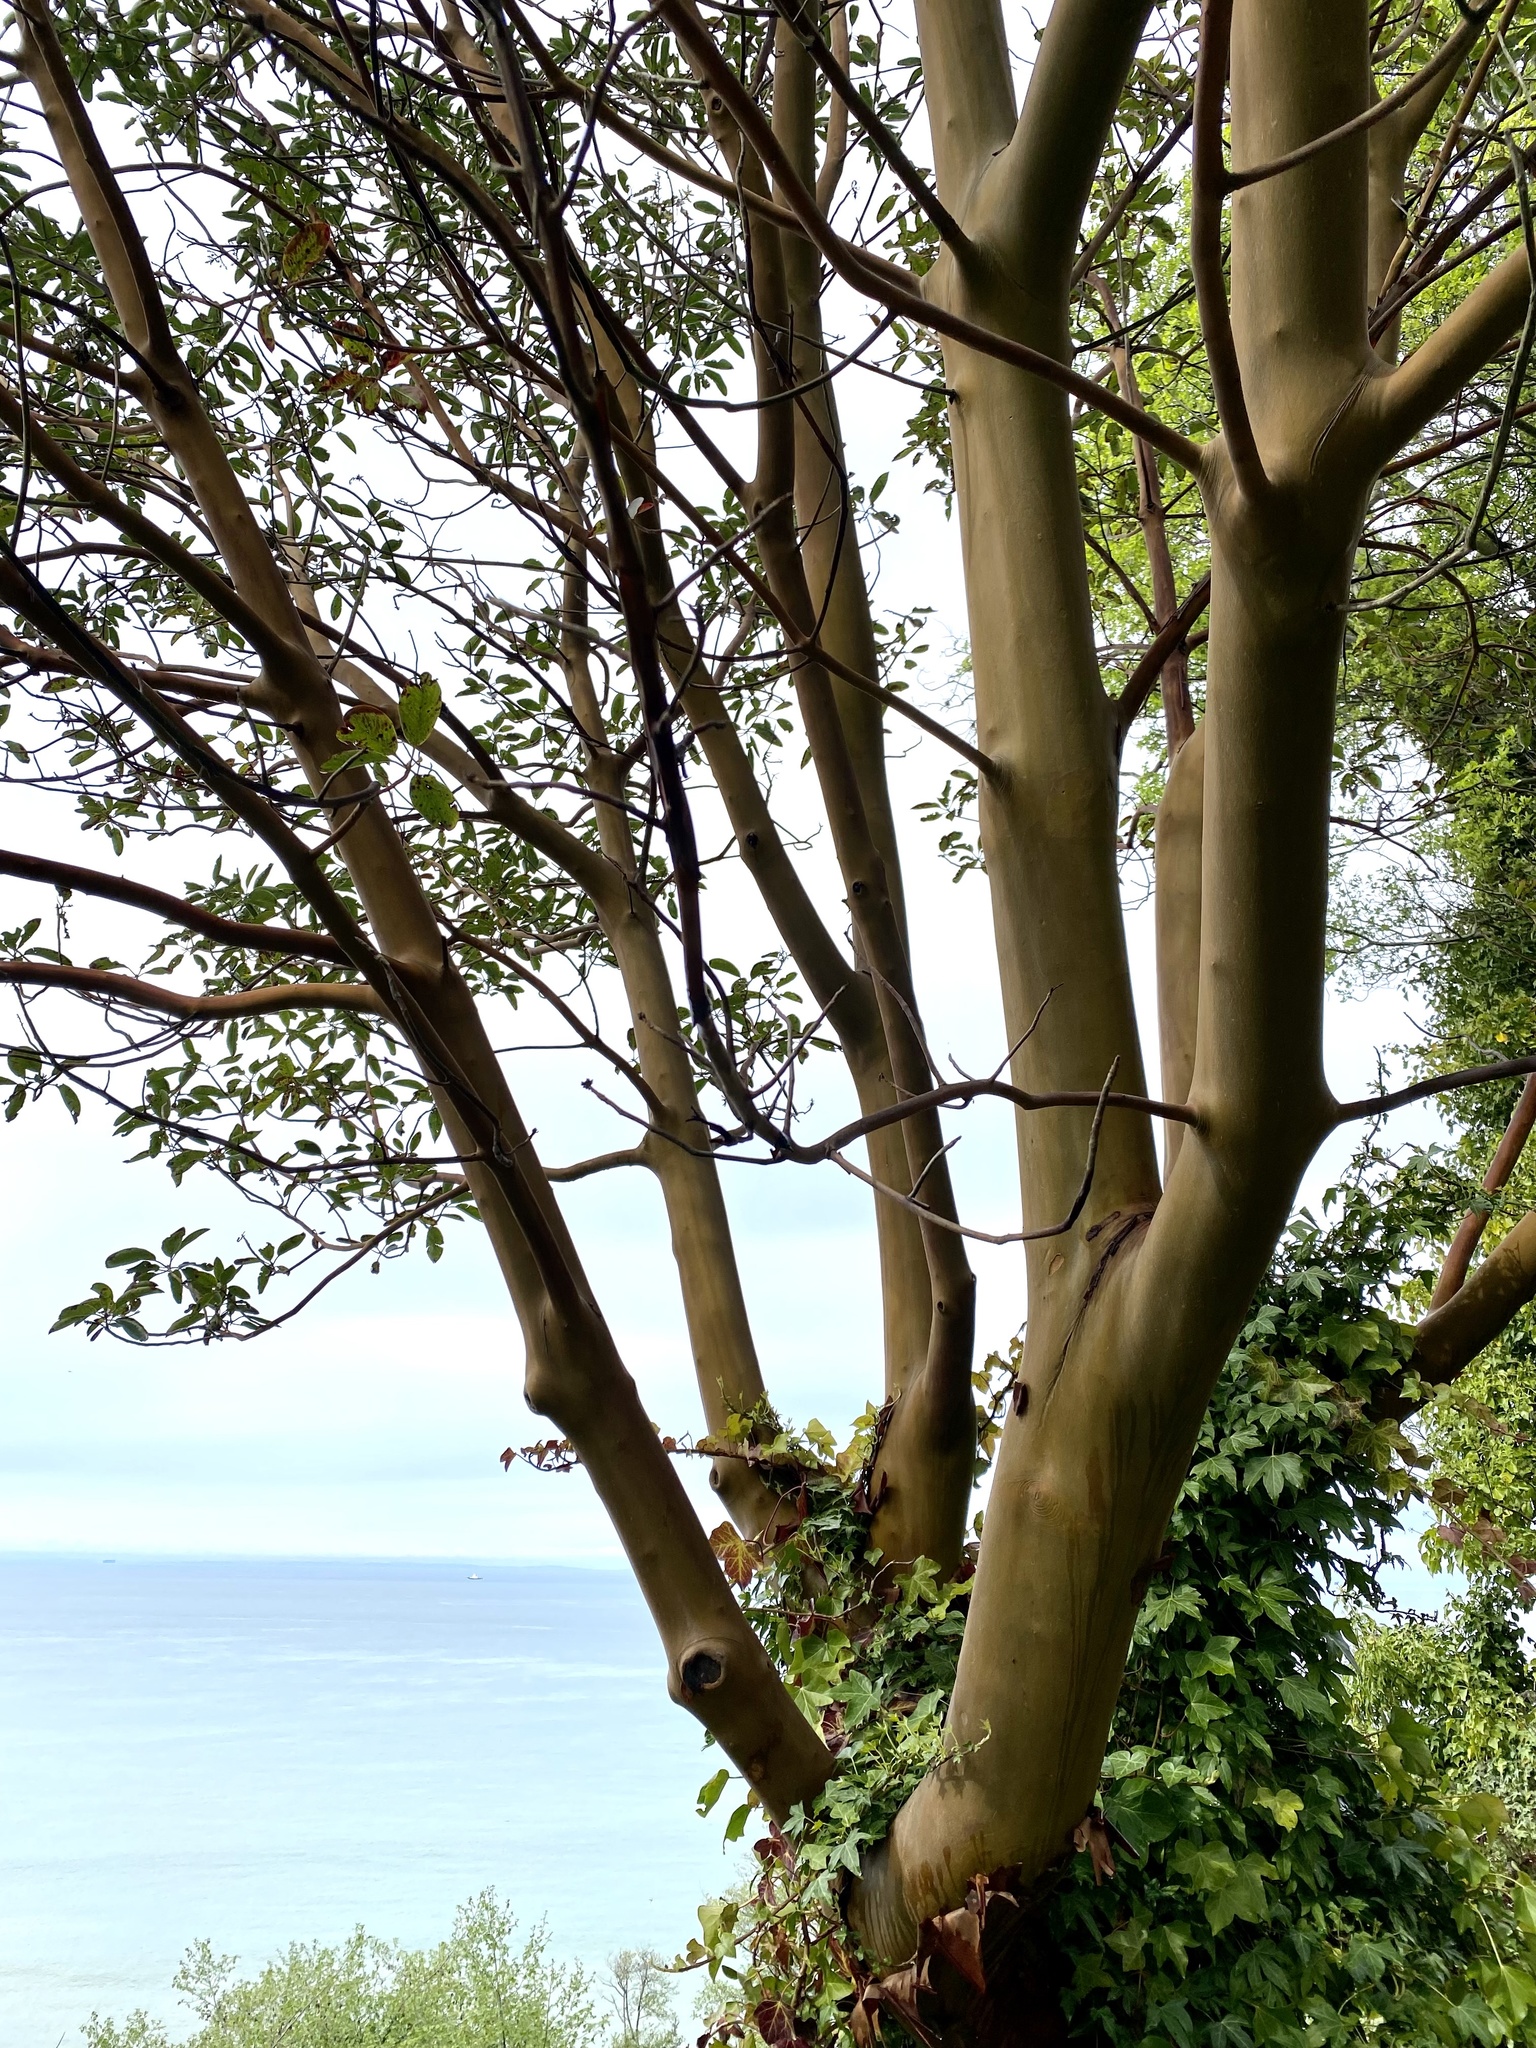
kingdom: Plantae
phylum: Tracheophyta
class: Magnoliopsida
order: Ericales
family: Ericaceae
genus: Arbutus
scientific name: Arbutus menziesii
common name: Pacific madrone
